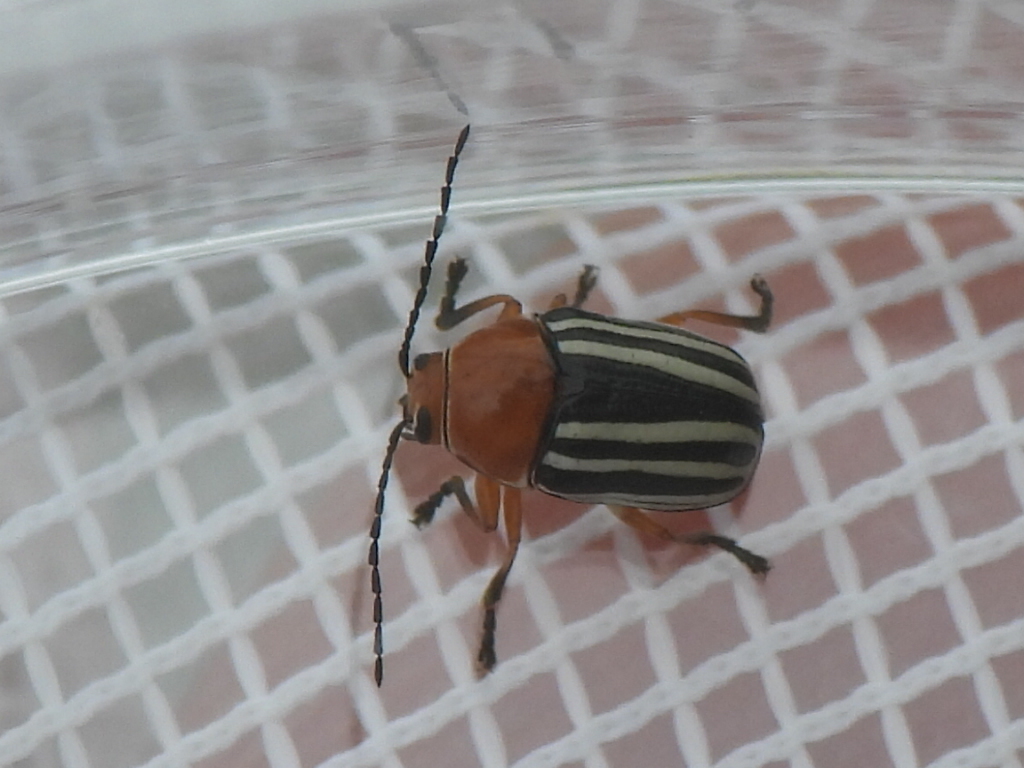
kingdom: Animalia
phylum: Arthropoda
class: Insecta
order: Coleoptera
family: Chrysomelidae
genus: Bassareus
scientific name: Bassareus lituratus
